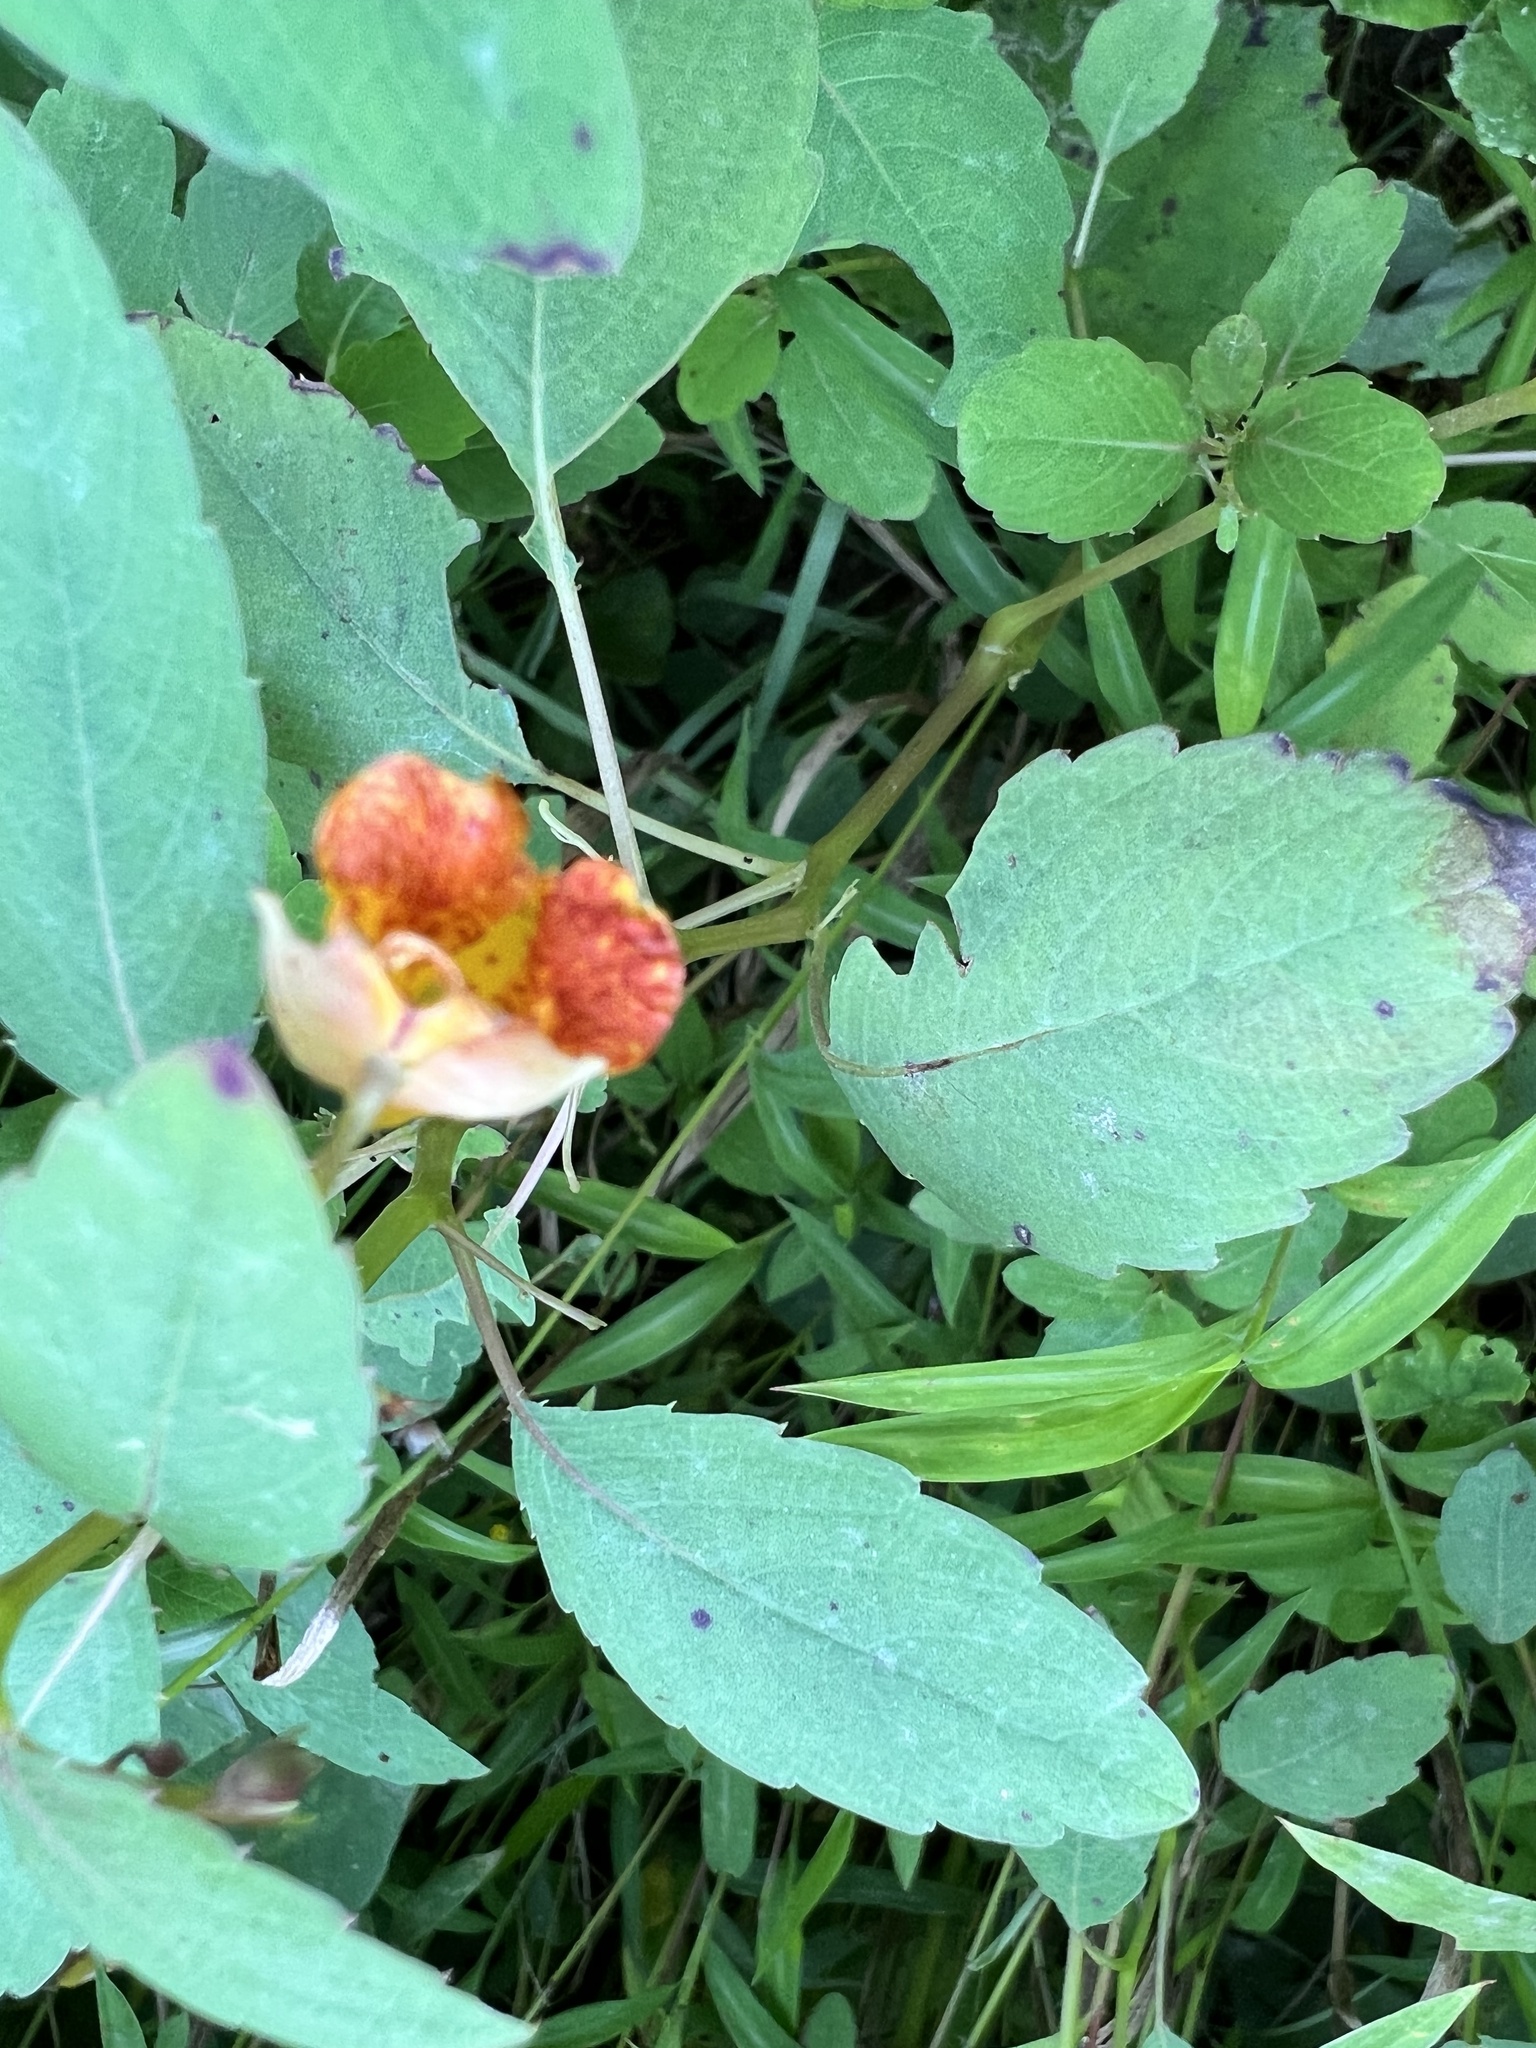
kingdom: Plantae
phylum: Tracheophyta
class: Magnoliopsida
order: Ericales
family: Balsaminaceae
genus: Impatiens
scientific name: Impatiens capensis
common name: Orange balsam
